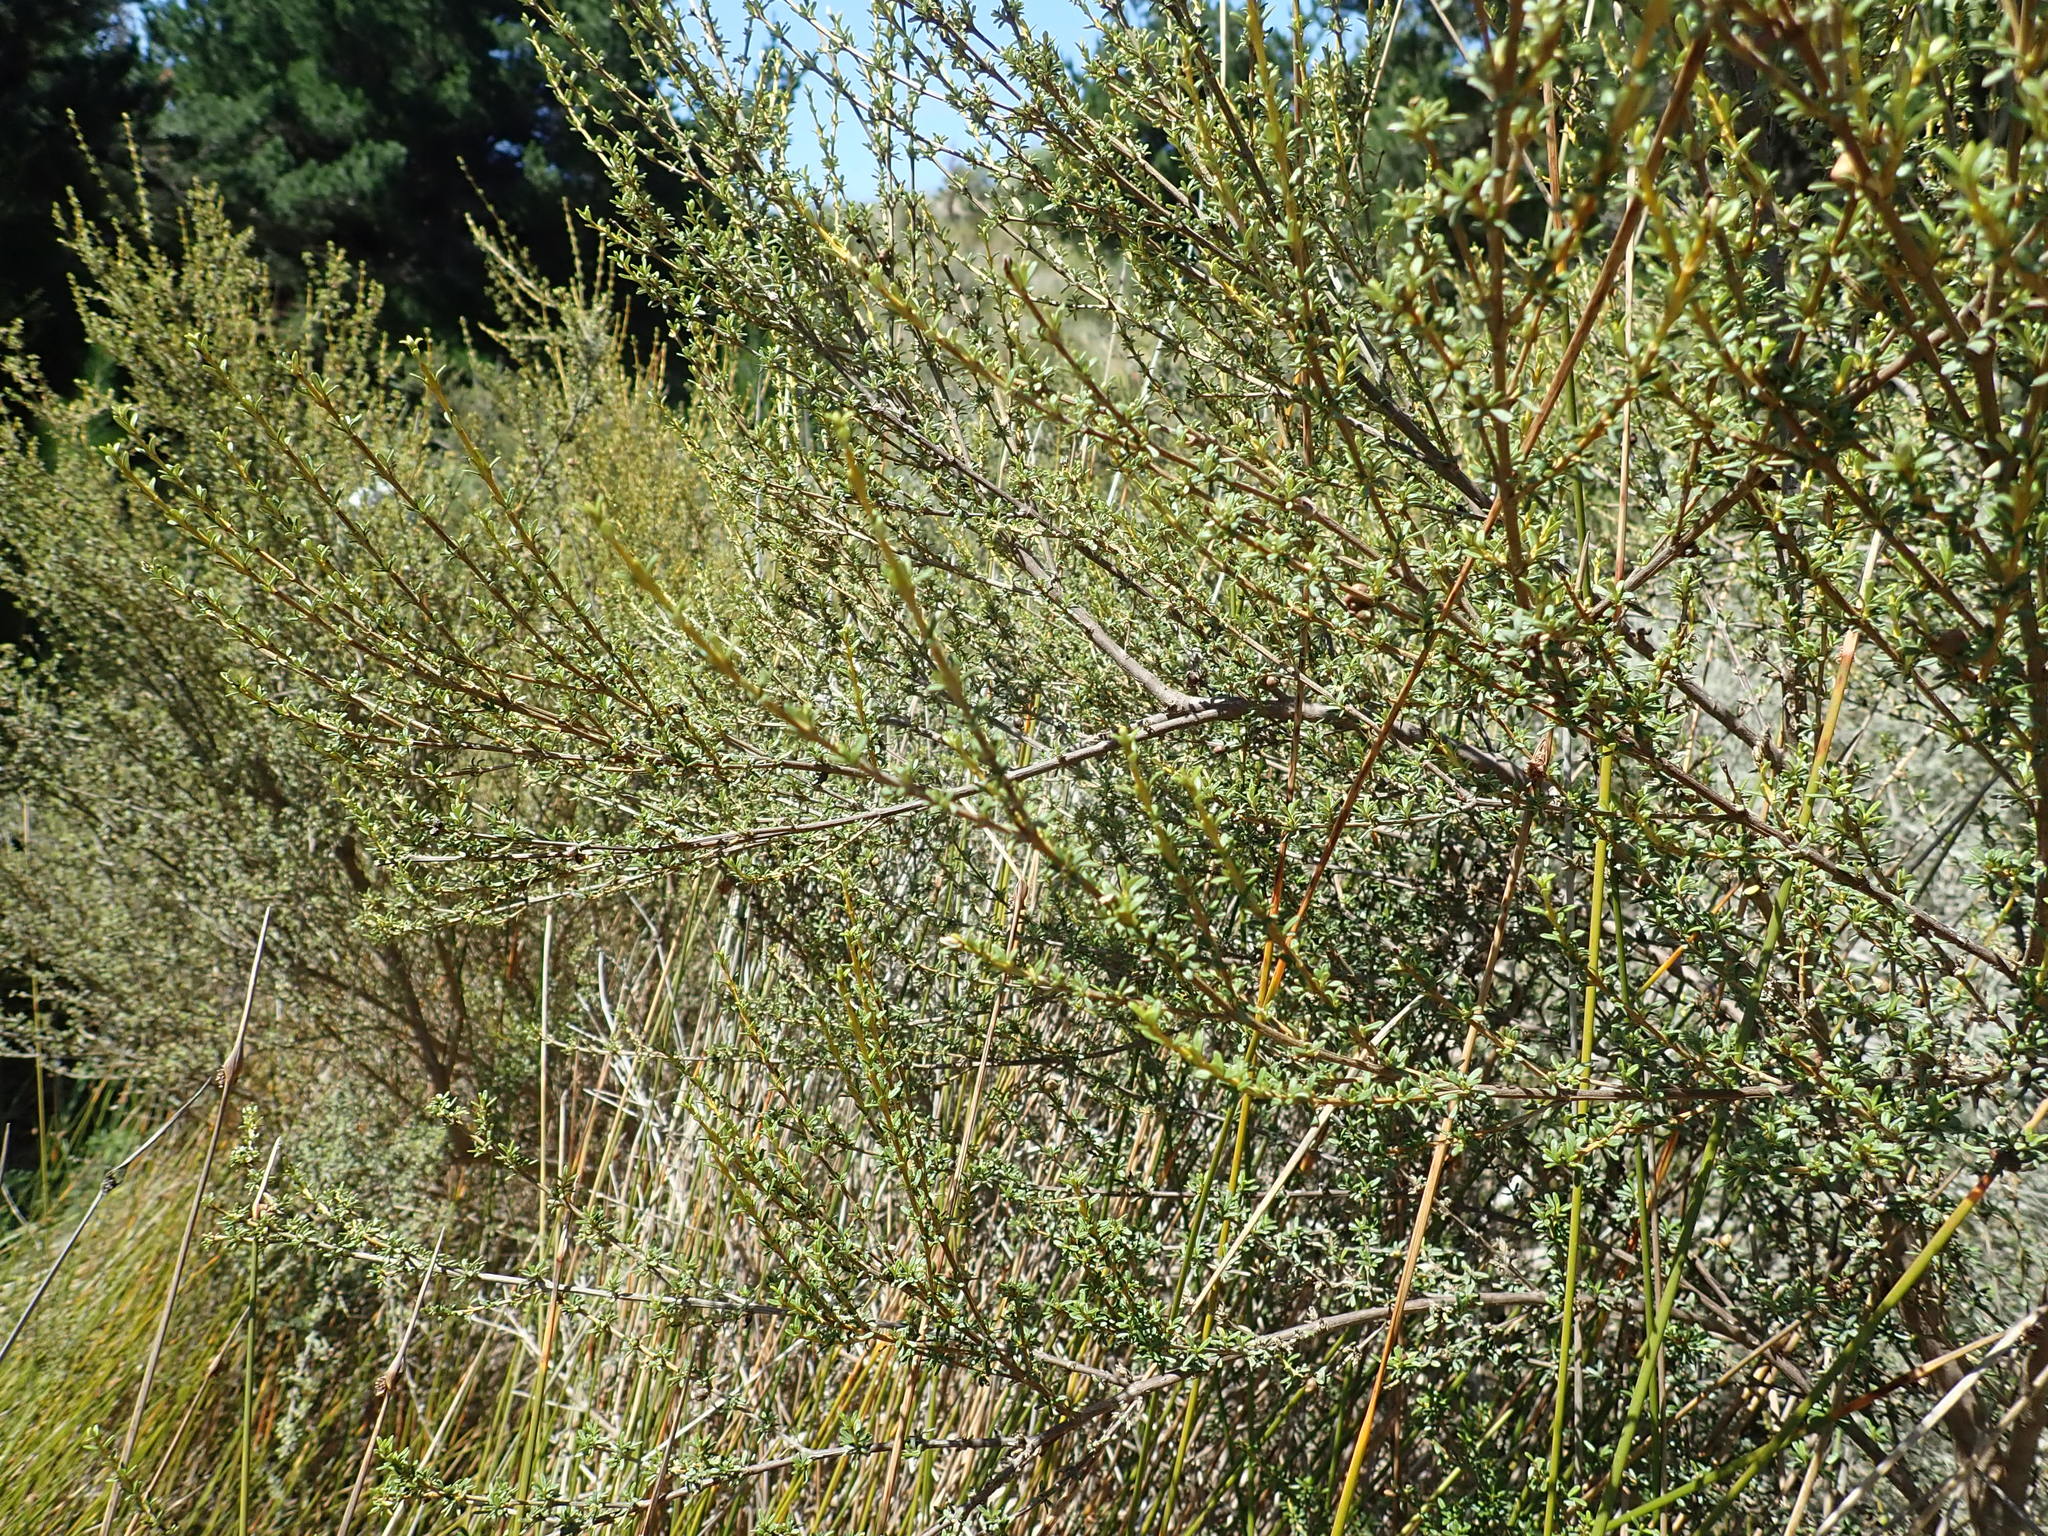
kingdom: Plantae
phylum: Tracheophyta
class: Magnoliopsida
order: Asterales
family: Asteraceae
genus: Olearia
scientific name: Olearia solandri
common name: Coastal daisybush
